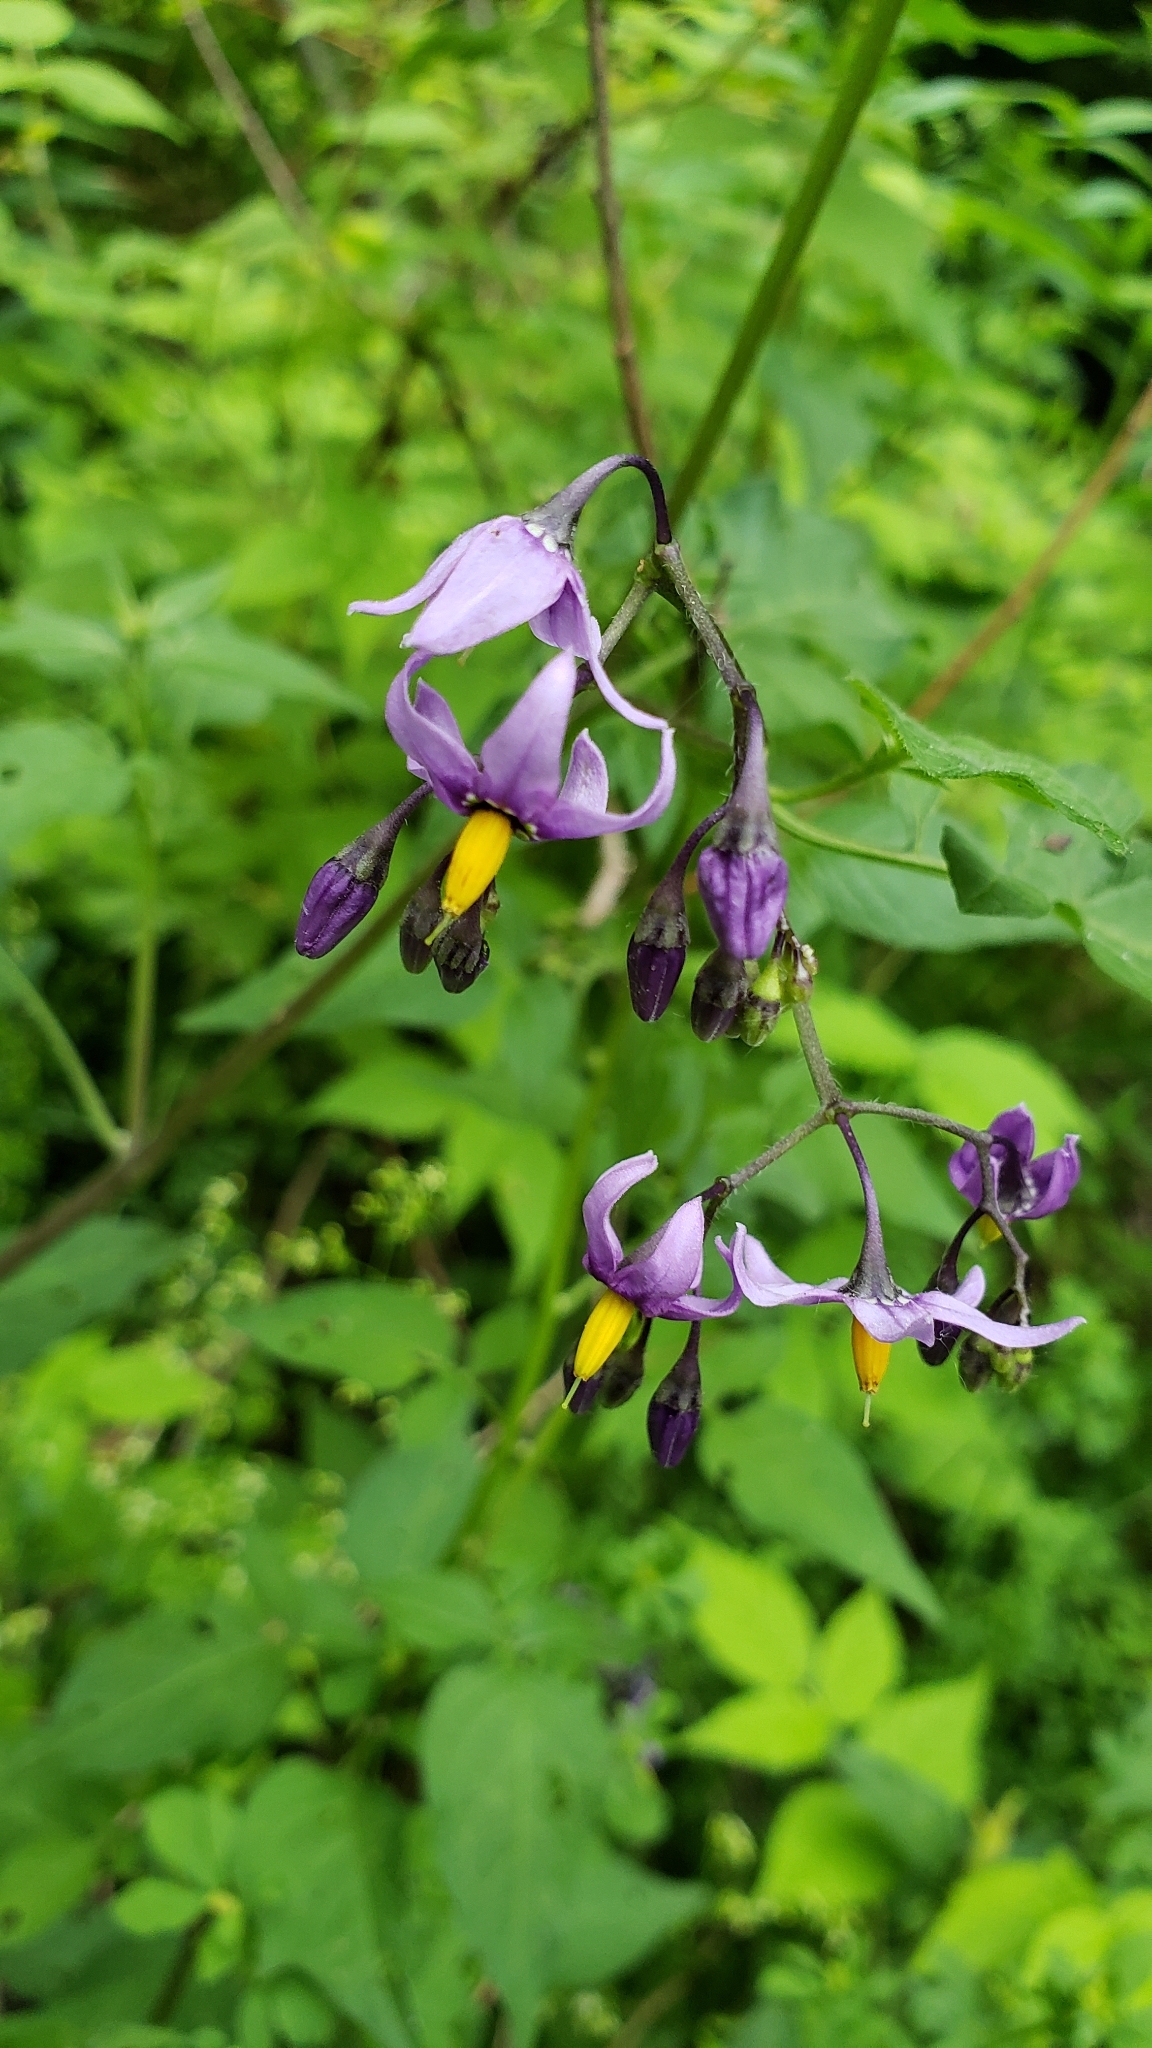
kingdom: Plantae
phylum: Tracheophyta
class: Magnoliopsida
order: Solanales
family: Solanaceae
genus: Solanum
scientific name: Solanum dulcamara
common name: Climbing nightshade
